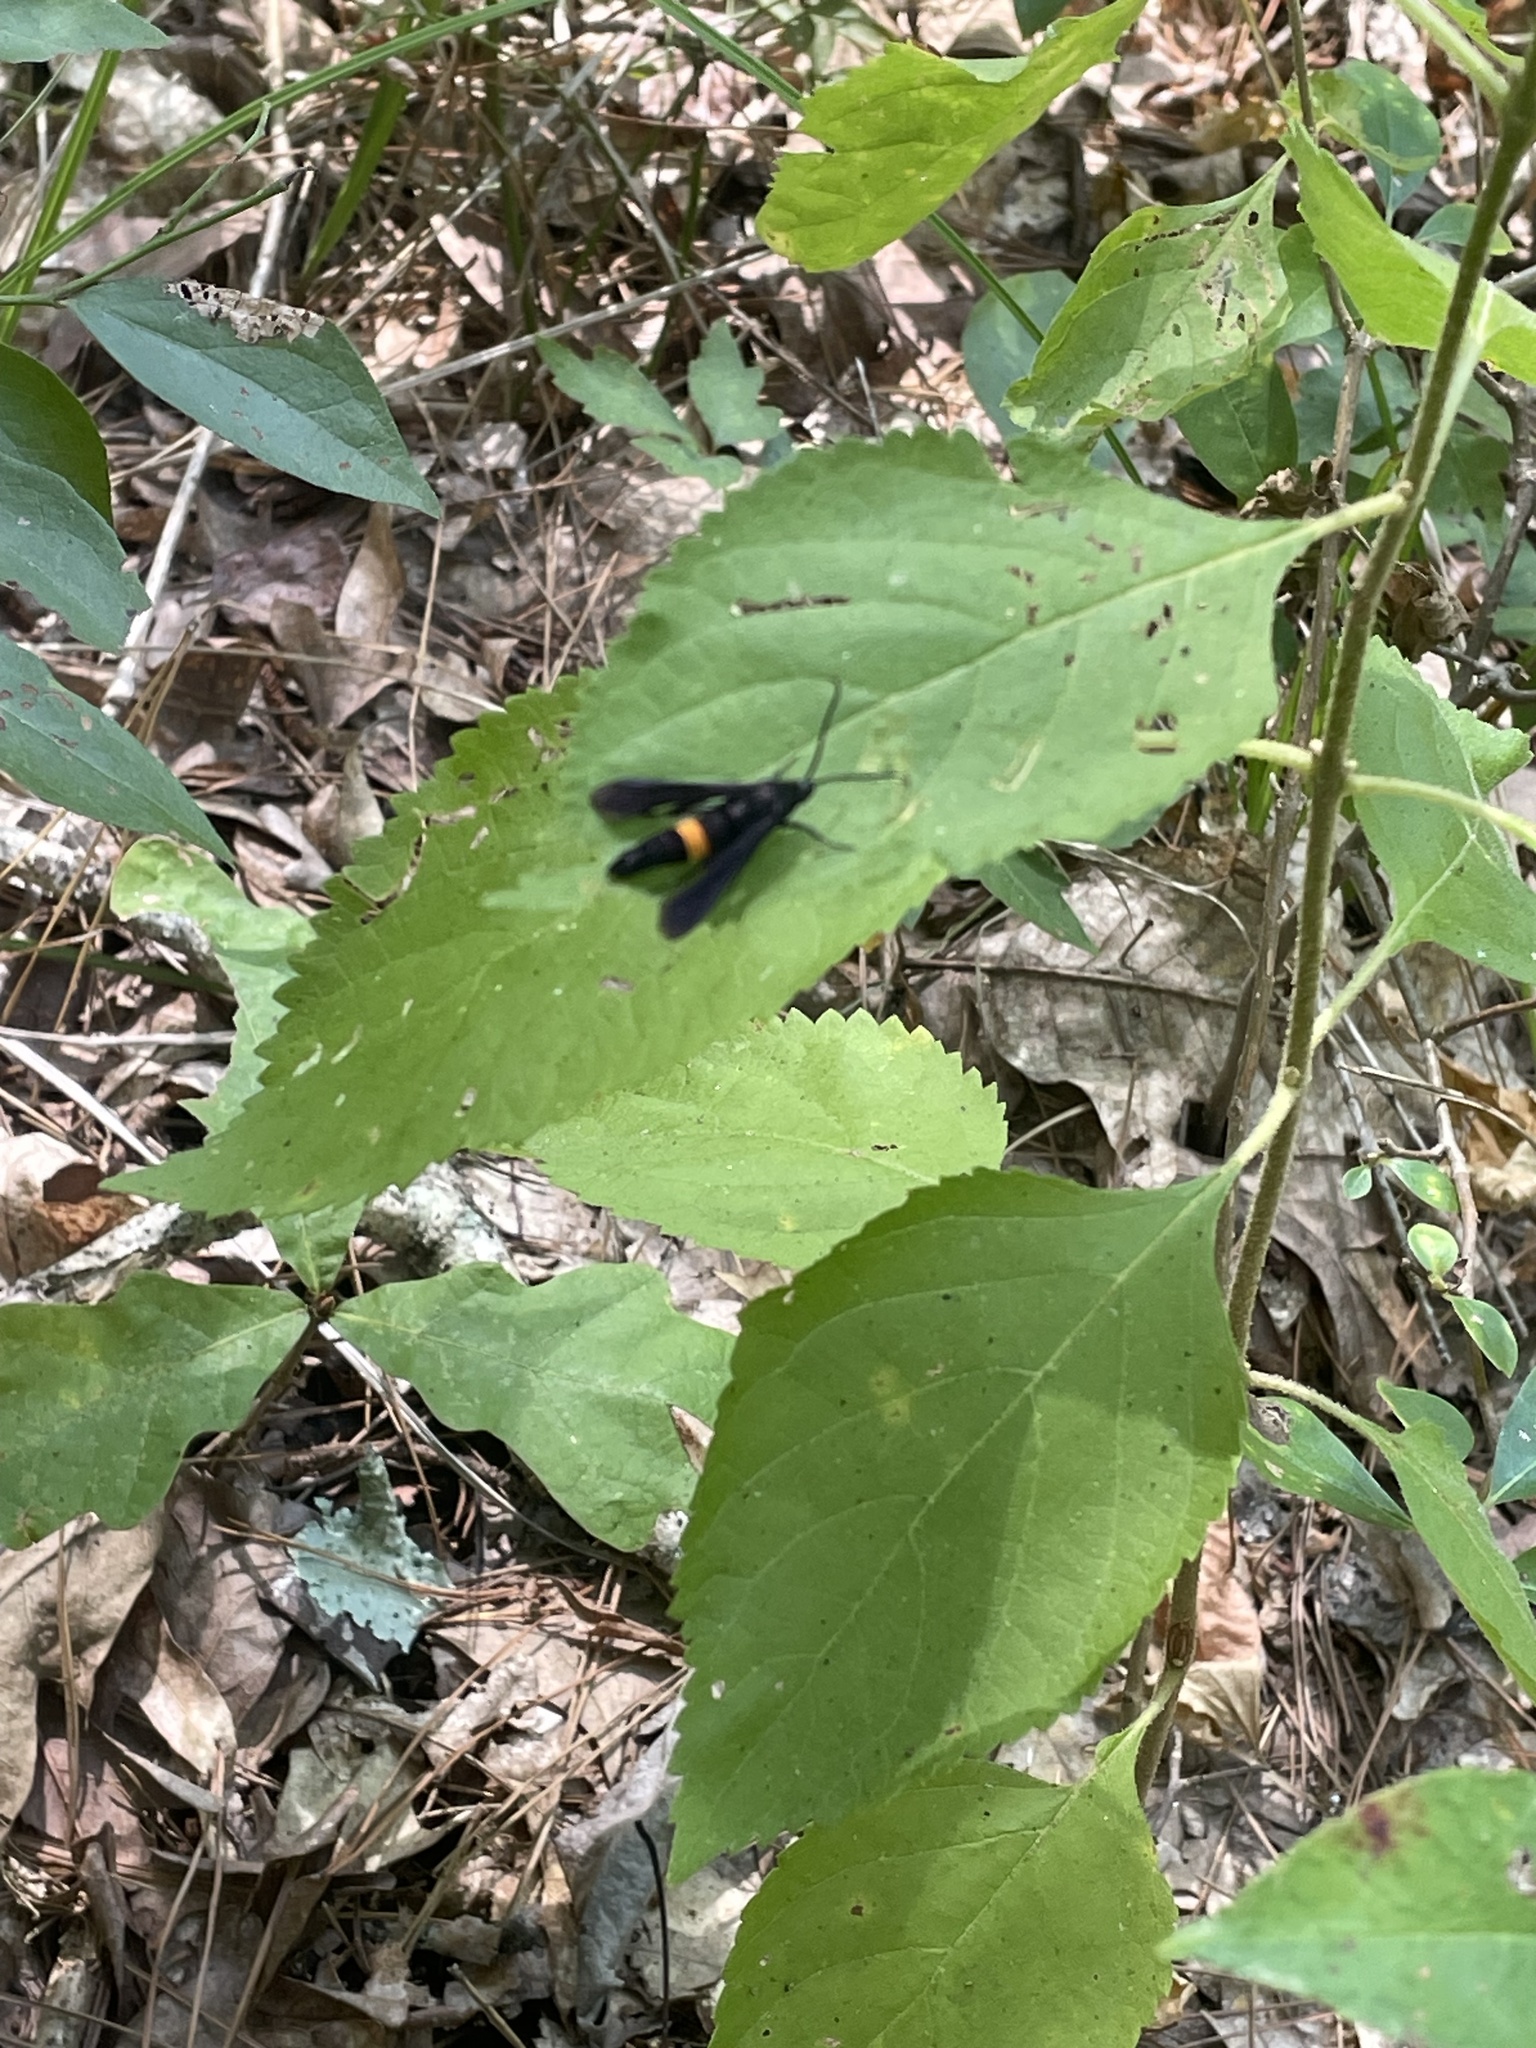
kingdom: Animalia
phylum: Arthropoda
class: Insecta
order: Lepidoptera
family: Sesiidae
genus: Synanthedon
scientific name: Synanthedon exitiosa
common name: Peachtree borer moth
